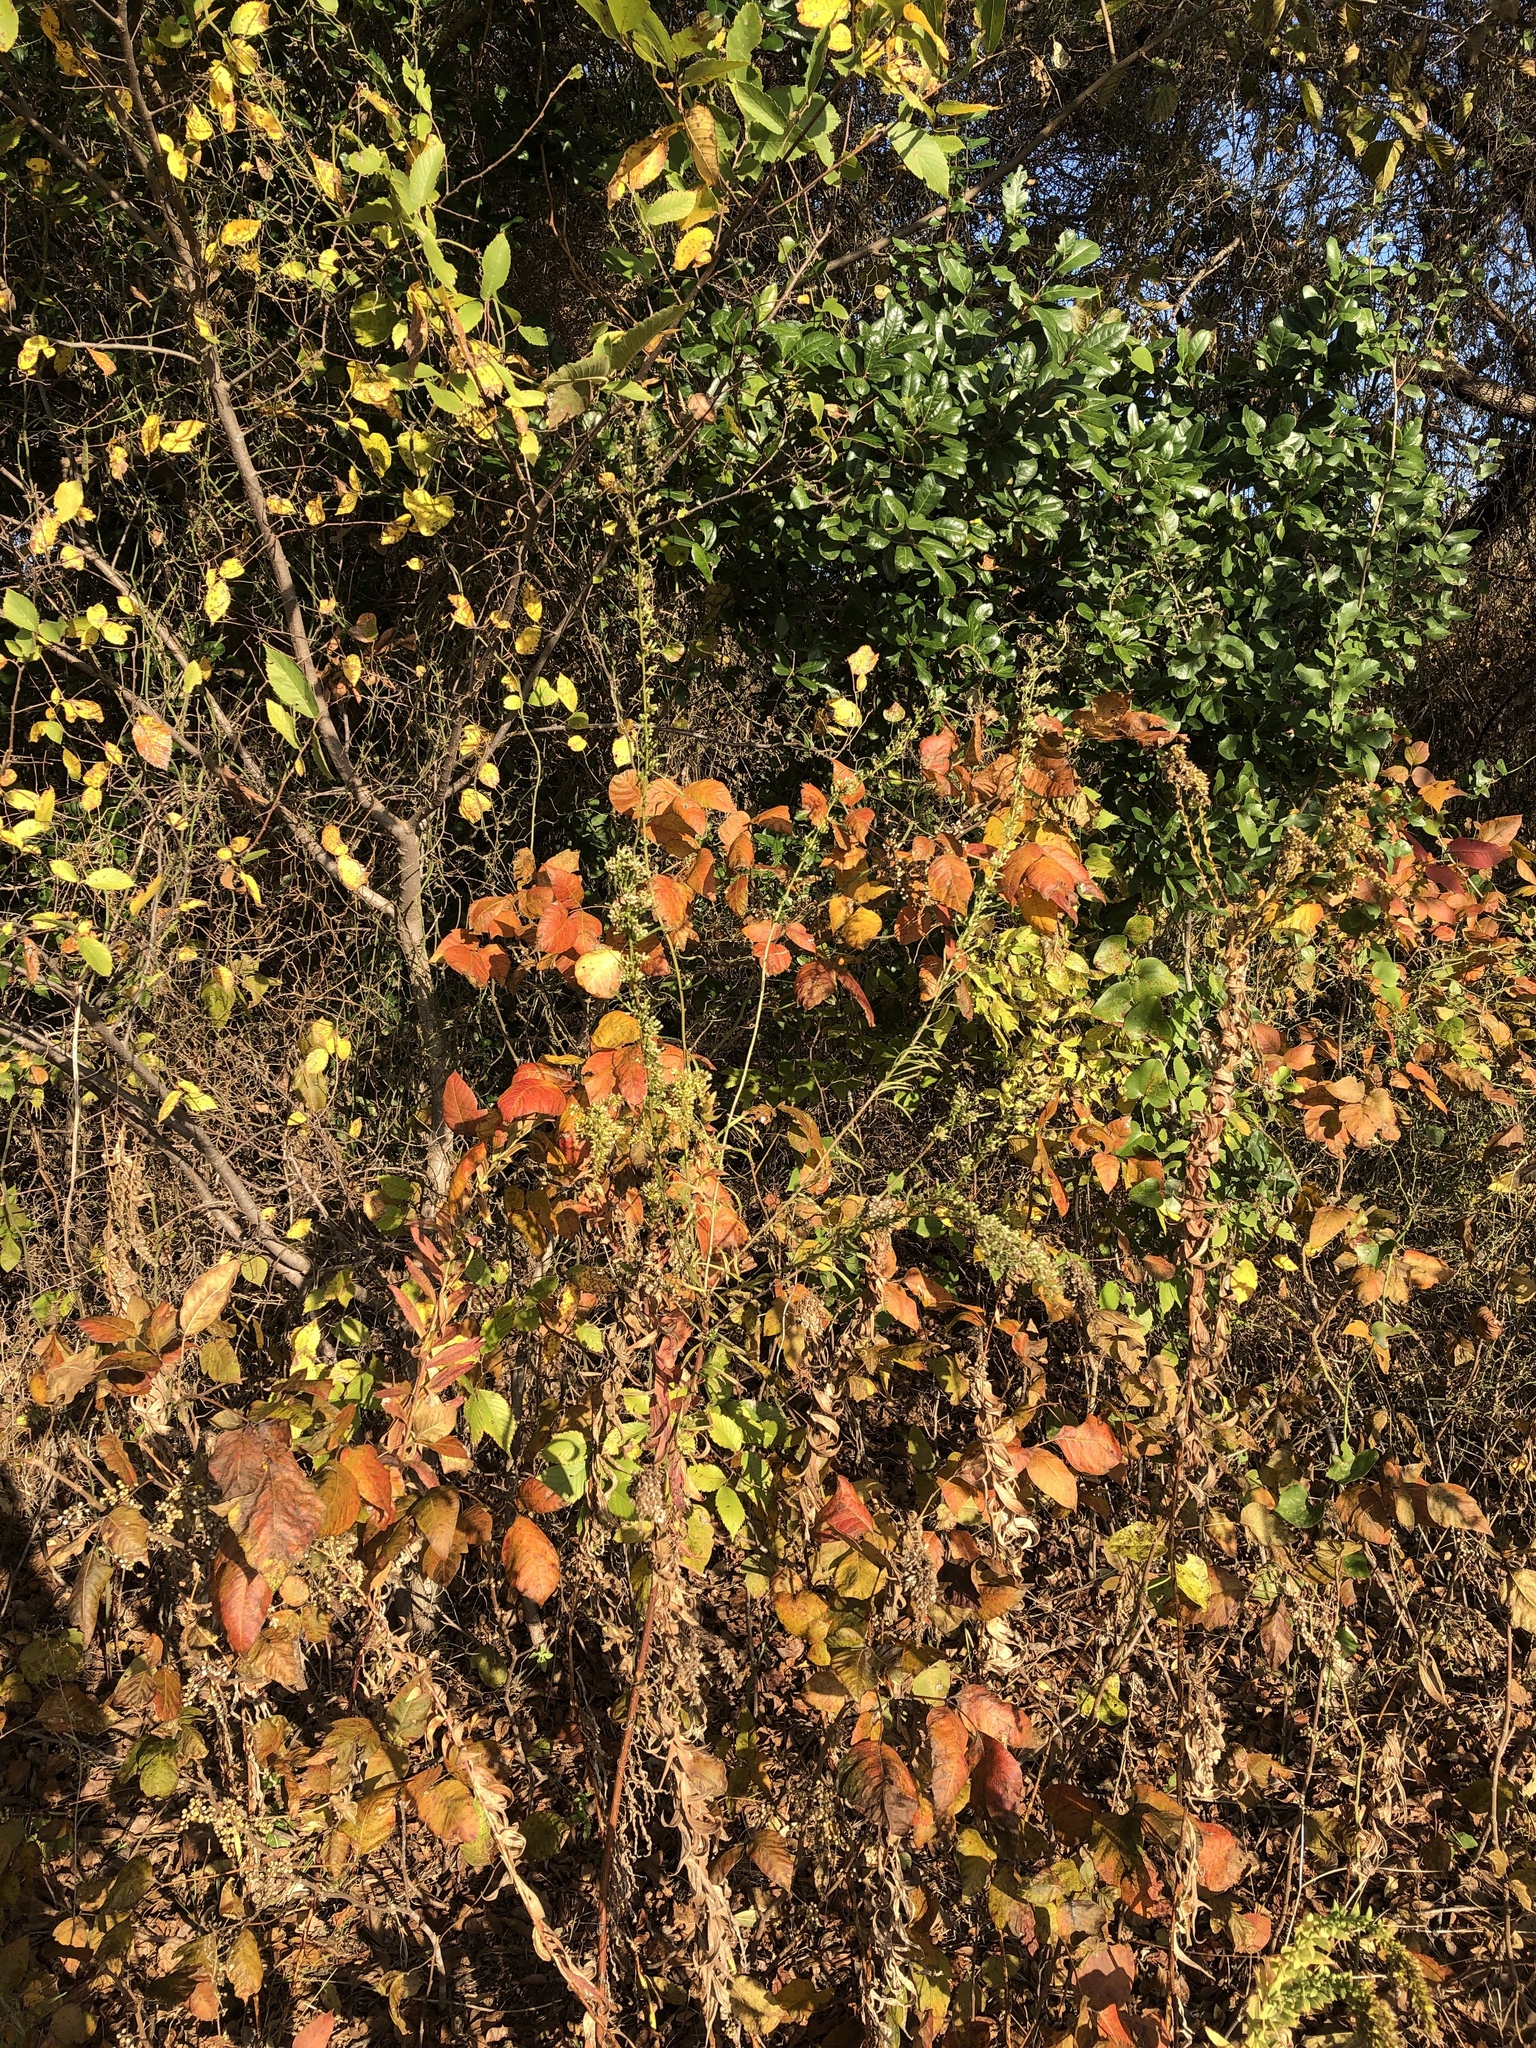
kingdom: Plantae
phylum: Tracheophyta
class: Magnoliopsida
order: Asterales
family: Asteraceae
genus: Erigeron
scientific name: Erigeron canadensis
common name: Canadian fleabane
